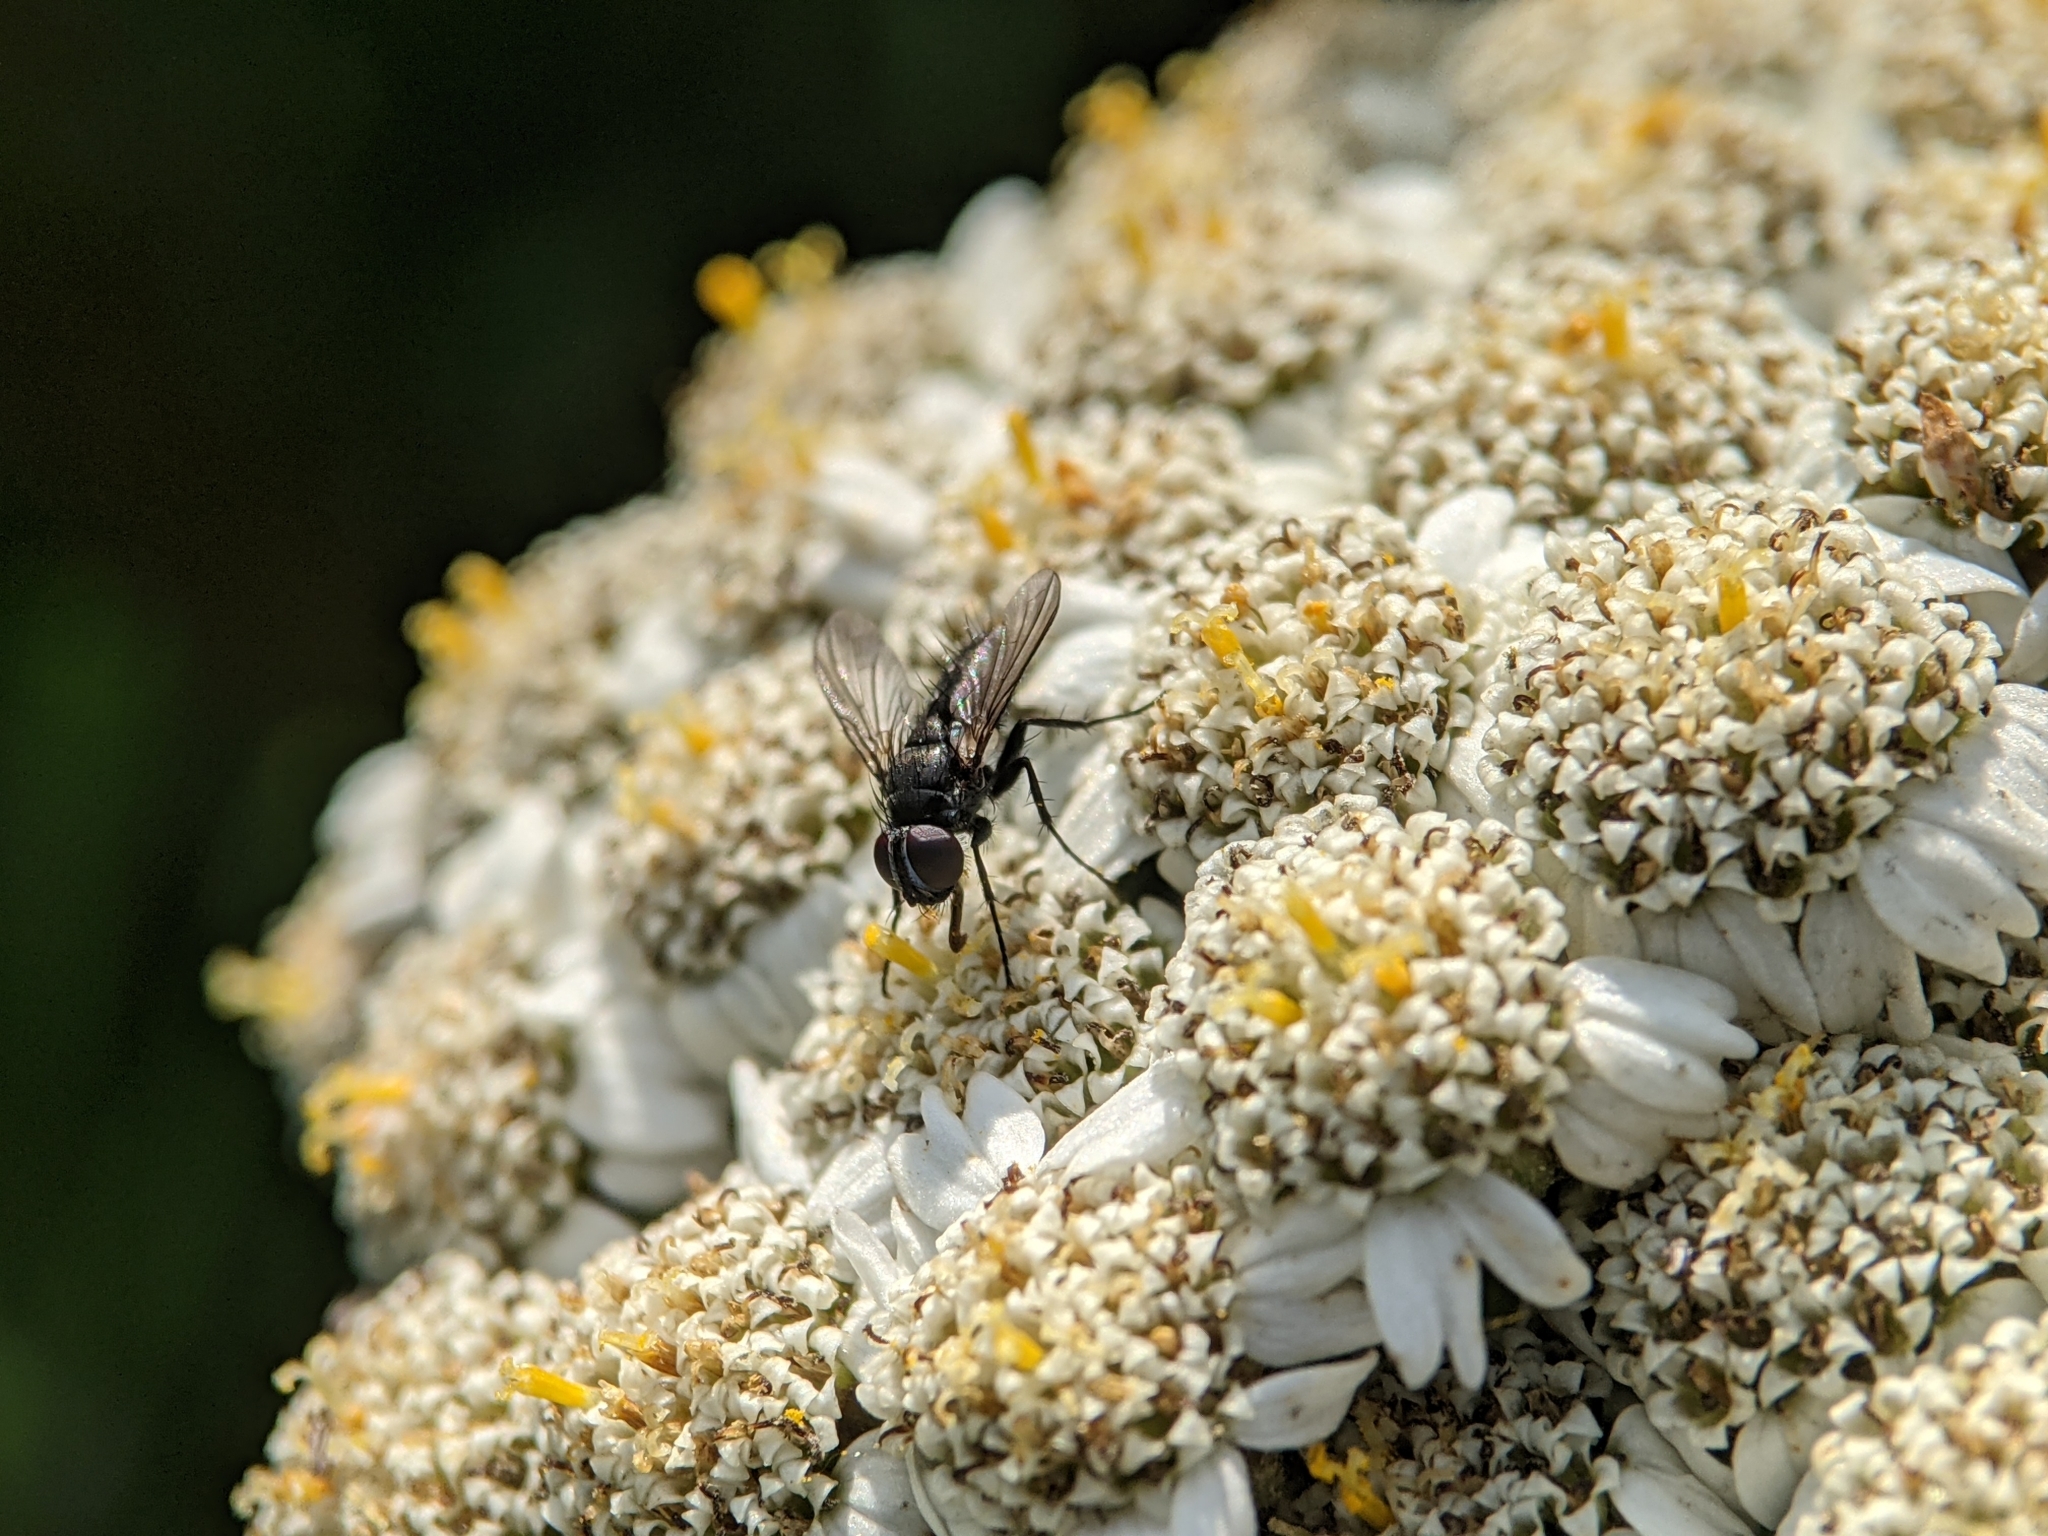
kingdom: Animalia
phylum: Arthropoda
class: Insecta
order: Diptera
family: Calliphoridae
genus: Rhinophora
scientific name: Rhinophora lepida
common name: Pouting woodlouse-fly
